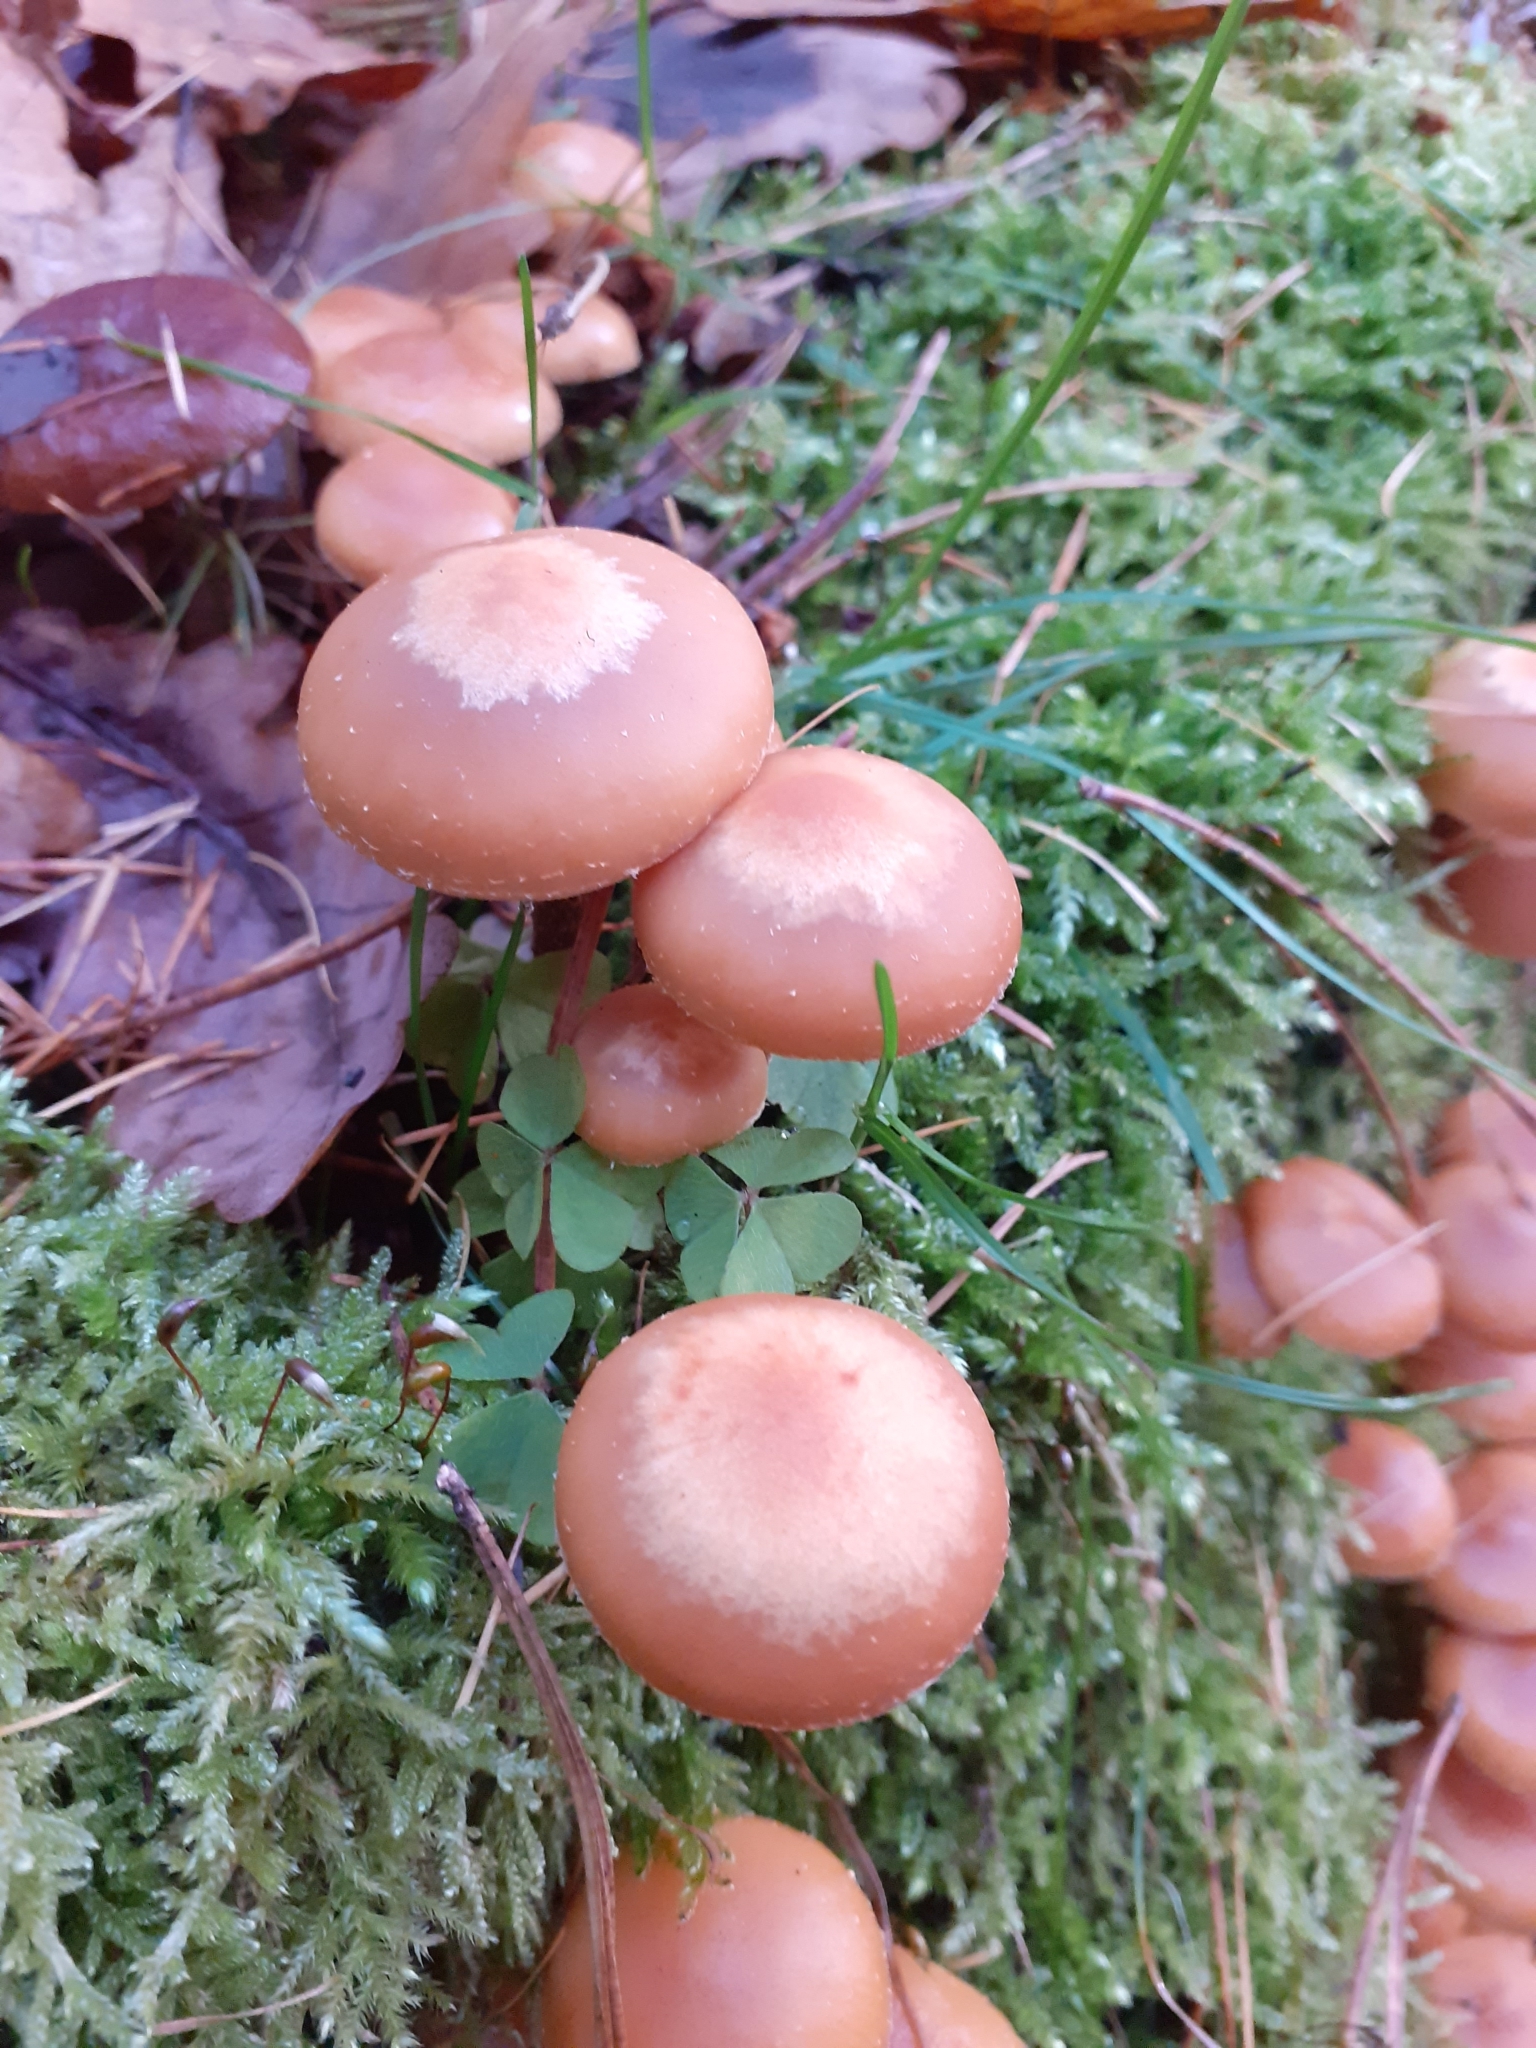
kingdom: Fungi
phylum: Basidiomycota
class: Agaricomycetes
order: Agaricales
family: Strophariaceae
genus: Kuehneromyces
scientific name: Kuehneromyces mutabilis
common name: Sheathed woodtuft
